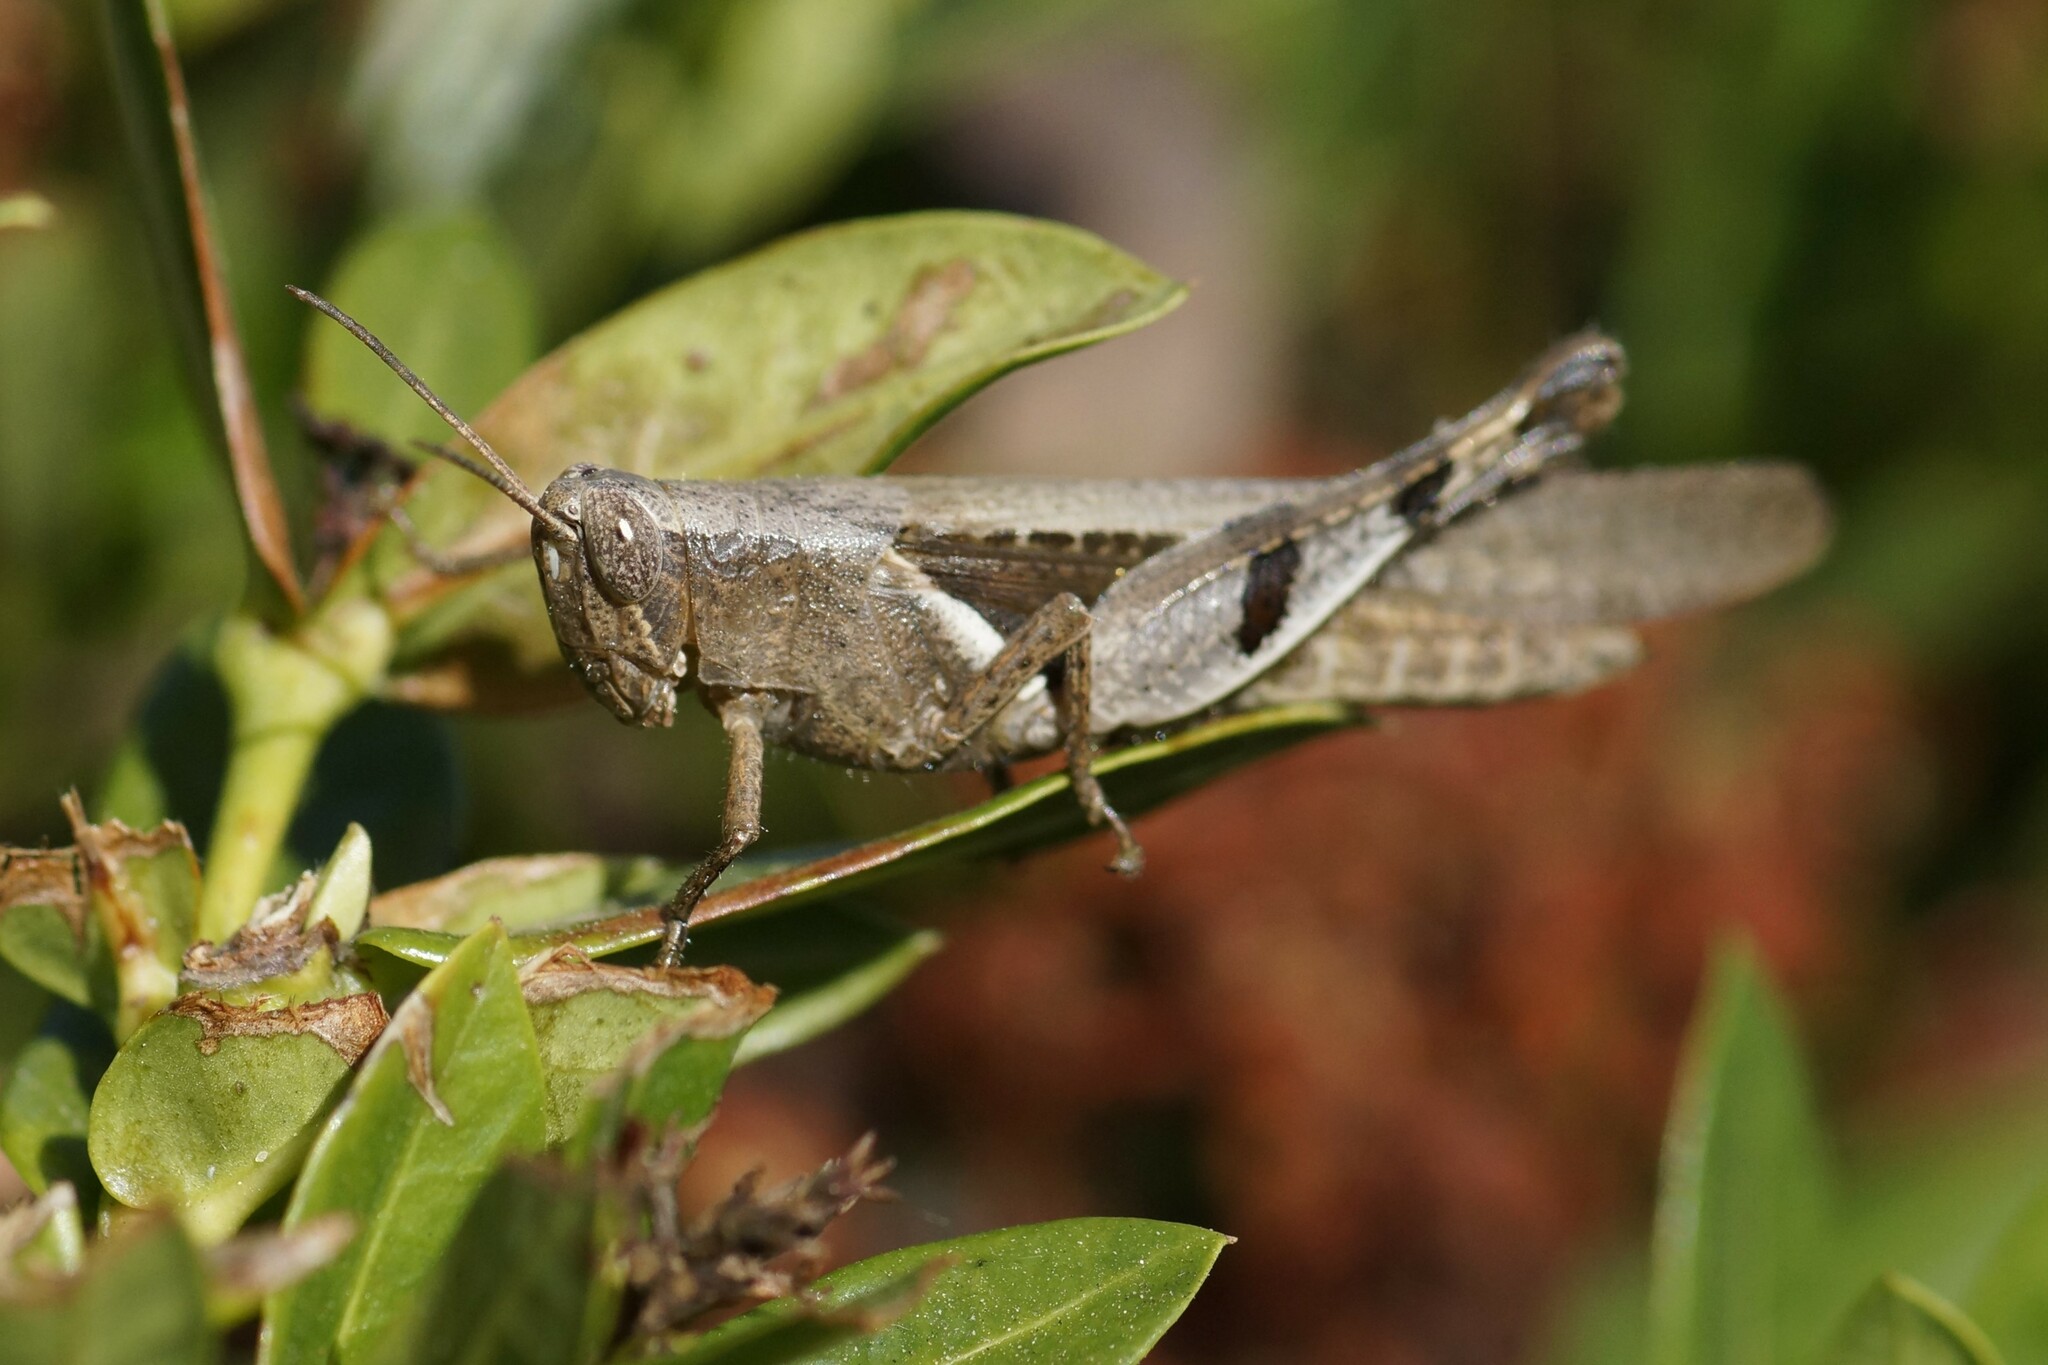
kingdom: Animalia
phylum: Arthropoda
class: Insecta
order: Orthoptera
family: Acrididae
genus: Stenocatantops
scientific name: Stenocatantops angustifrons
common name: Common tropical sharptail
